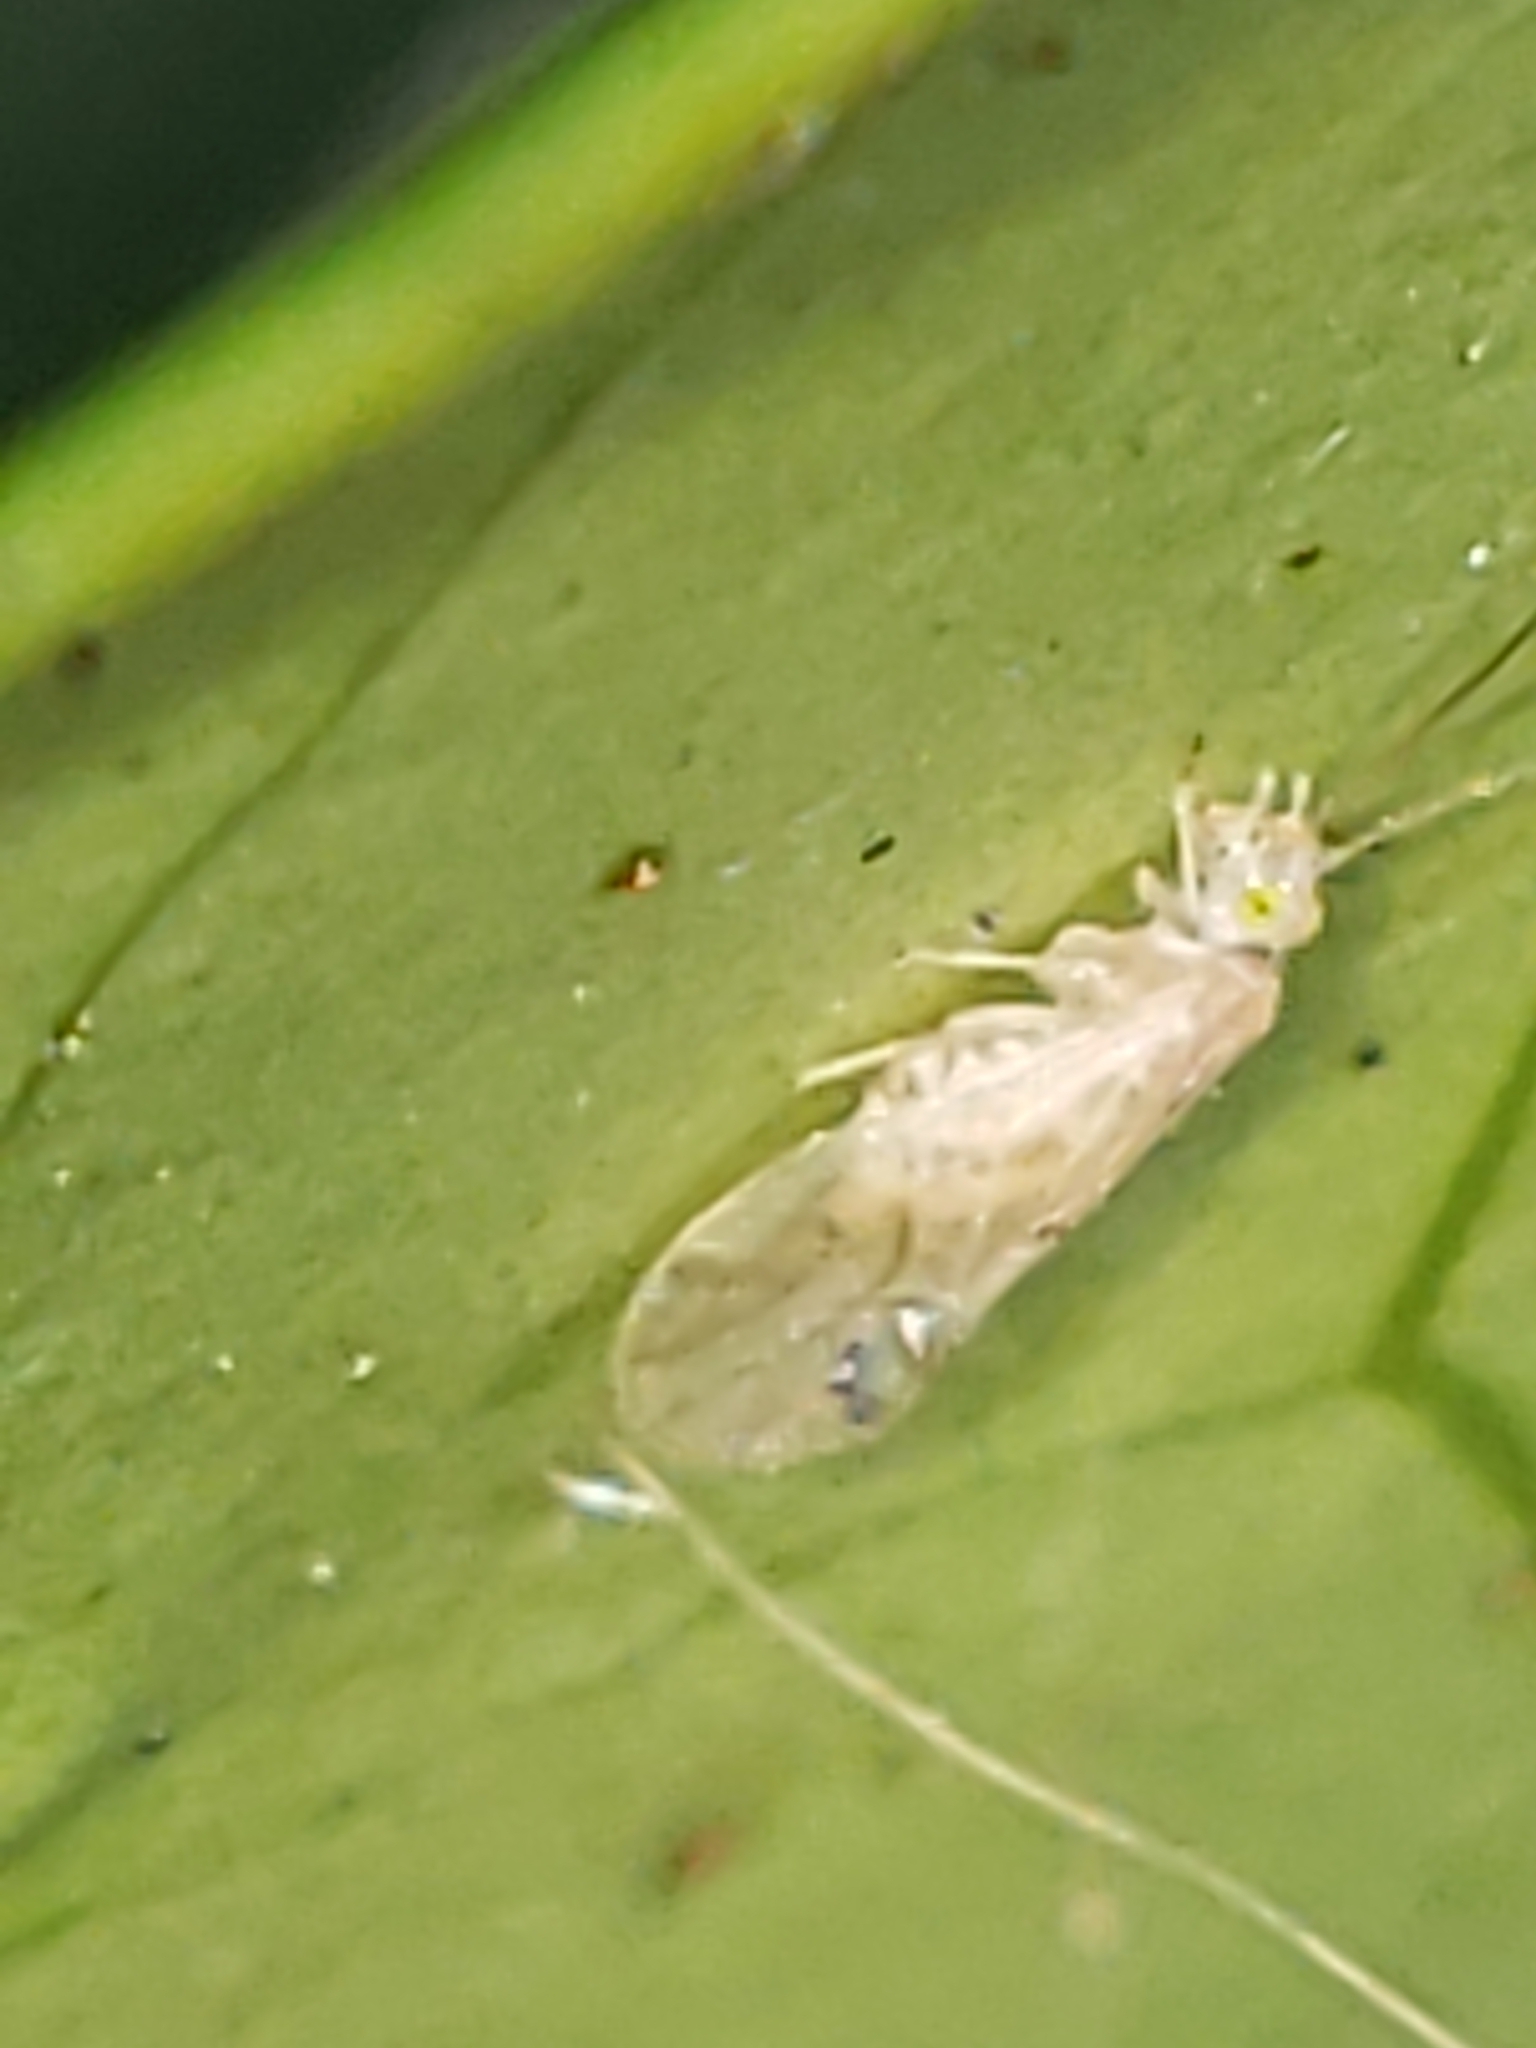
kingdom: Animalia
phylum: Arthropoda
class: Insecta
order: Psocodea
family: Paracaeciliidae
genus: Xanthocaecilius
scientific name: Xanthocaecilius sommermanae
